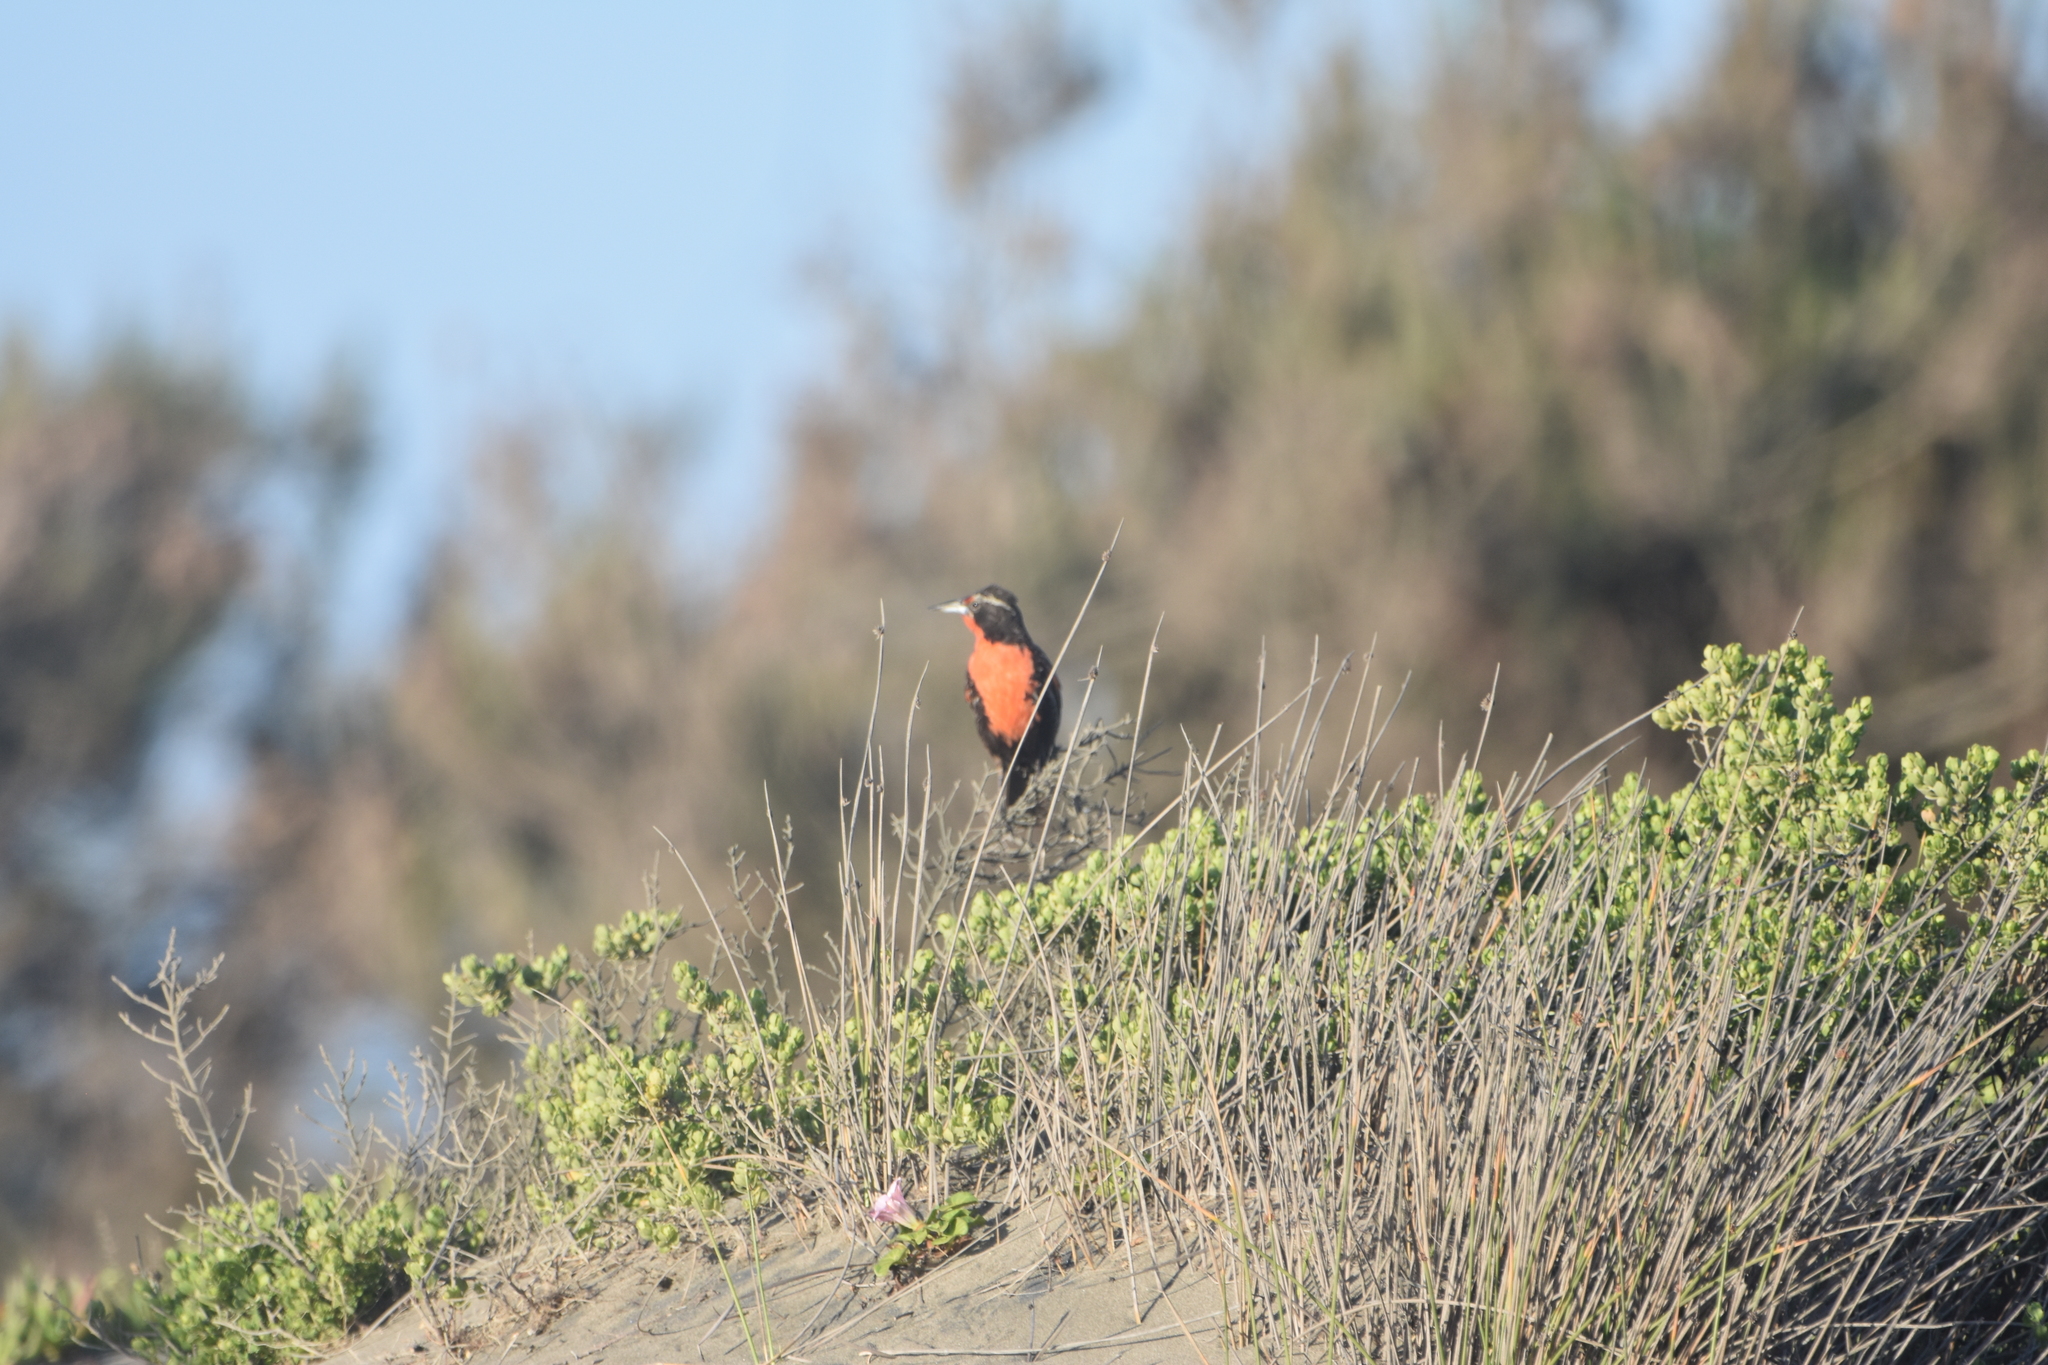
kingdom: Animalia
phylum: Chordata
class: Aves
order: Passeriformes
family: Icteridae
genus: Sturnella
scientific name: Sturnella loyca
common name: Long-tailed meadowlark
